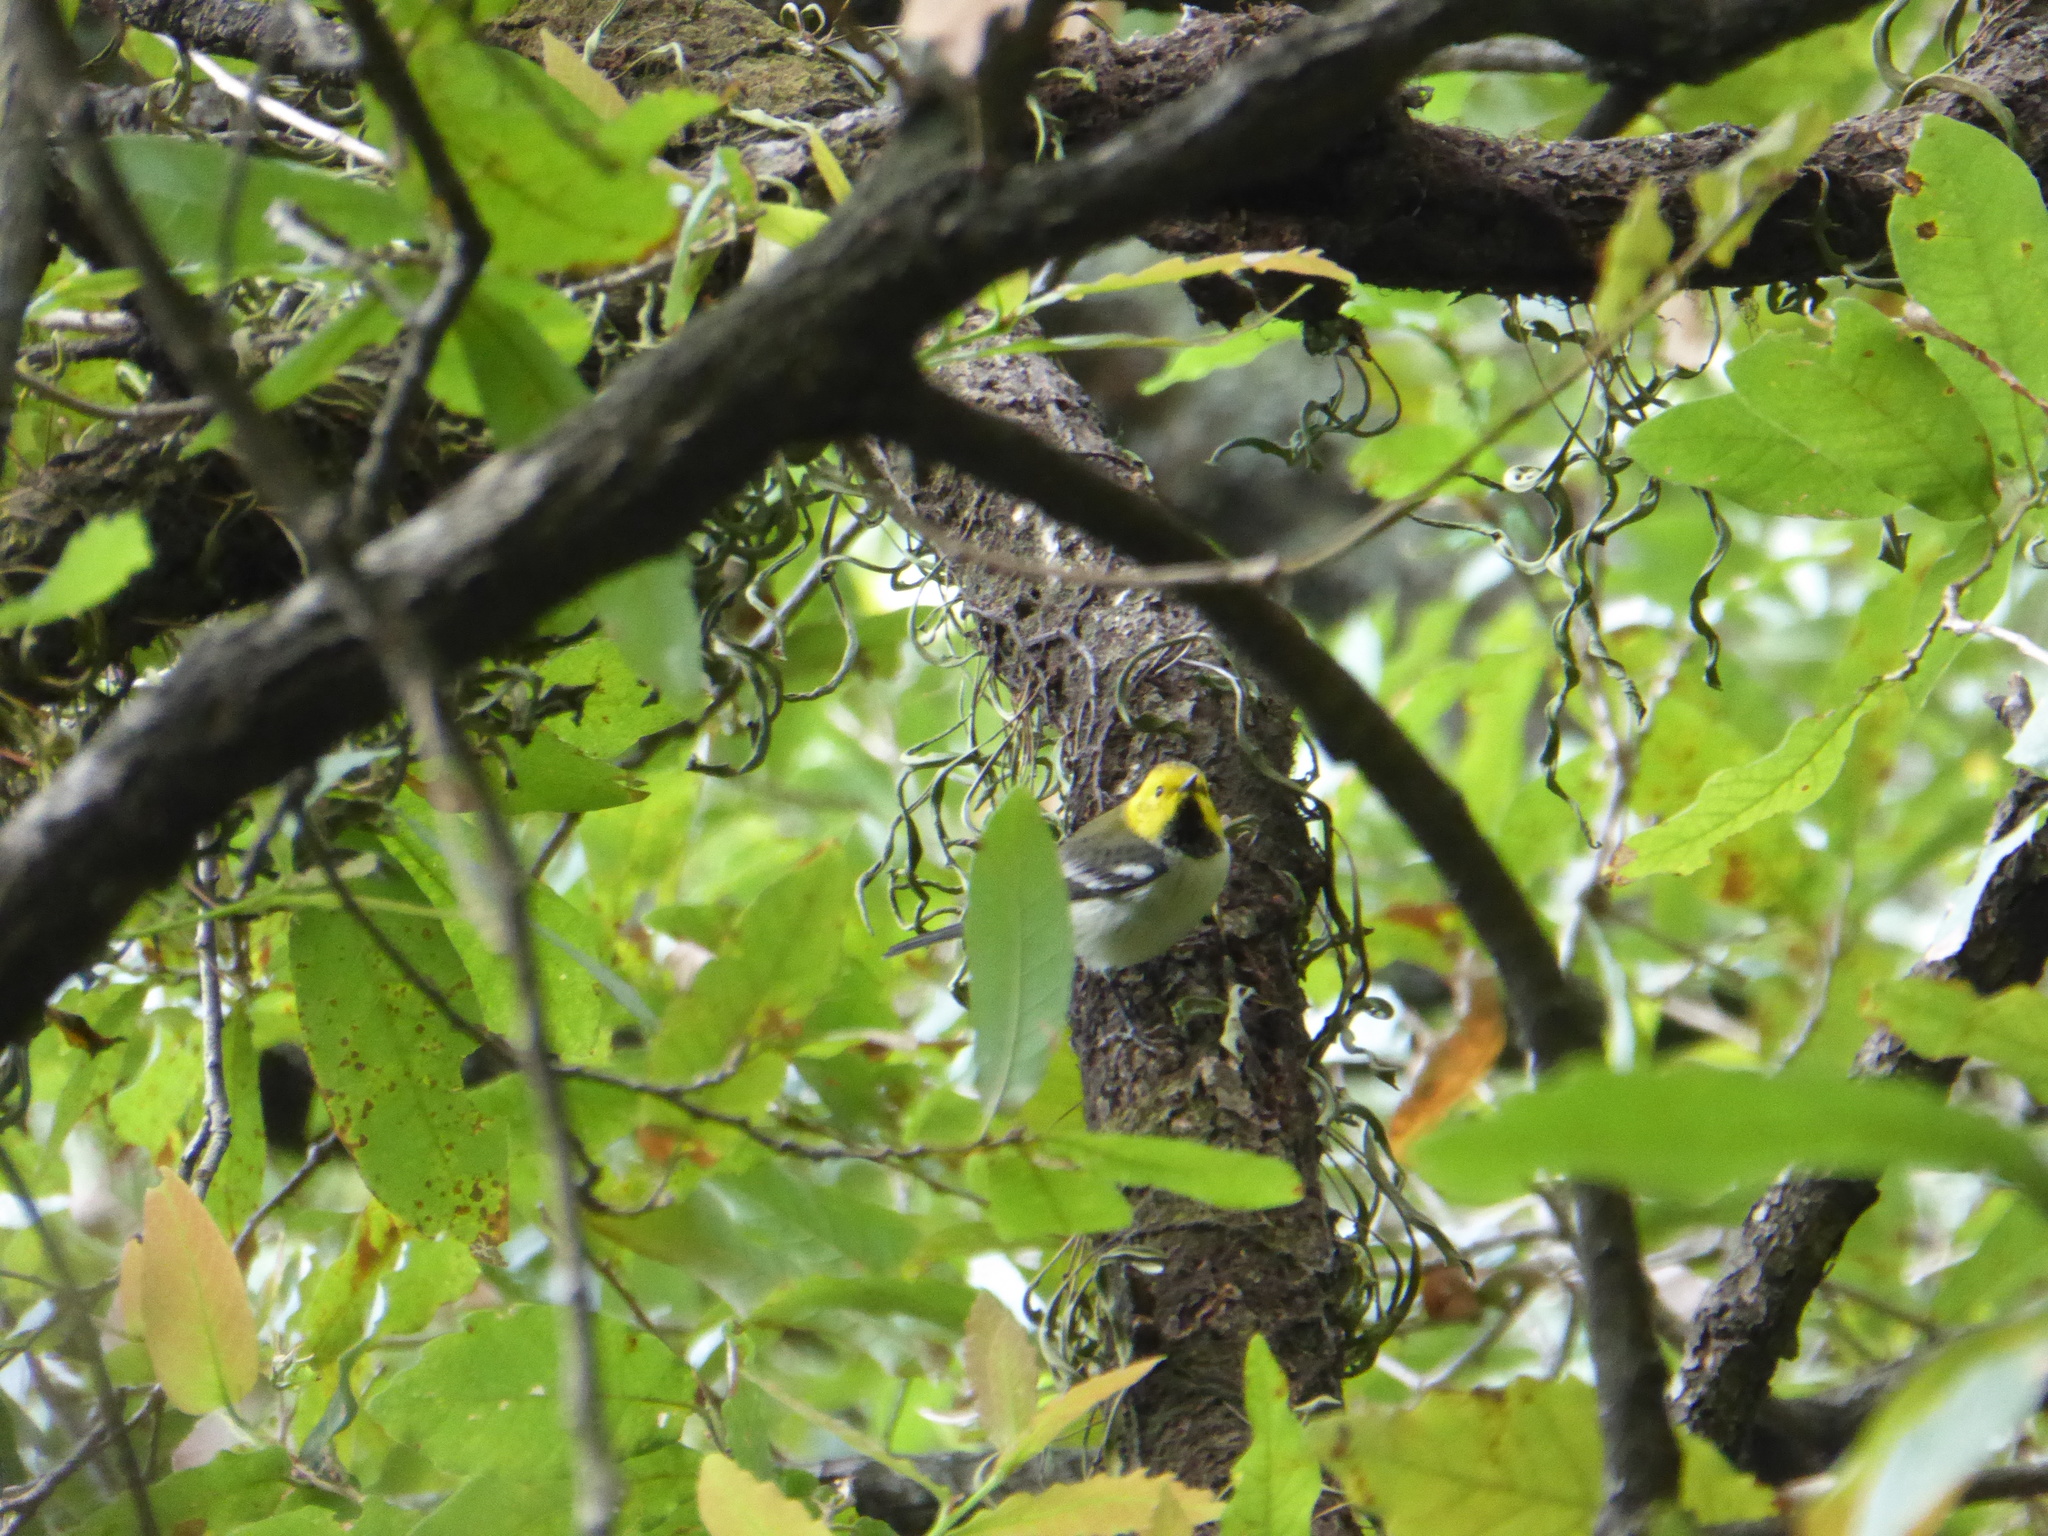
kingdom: Animalia
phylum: Chordata
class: Aves
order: Passeriformes
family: Parulidae
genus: Setophaga
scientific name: Setophaga occidentalis
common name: Hermit warbler
